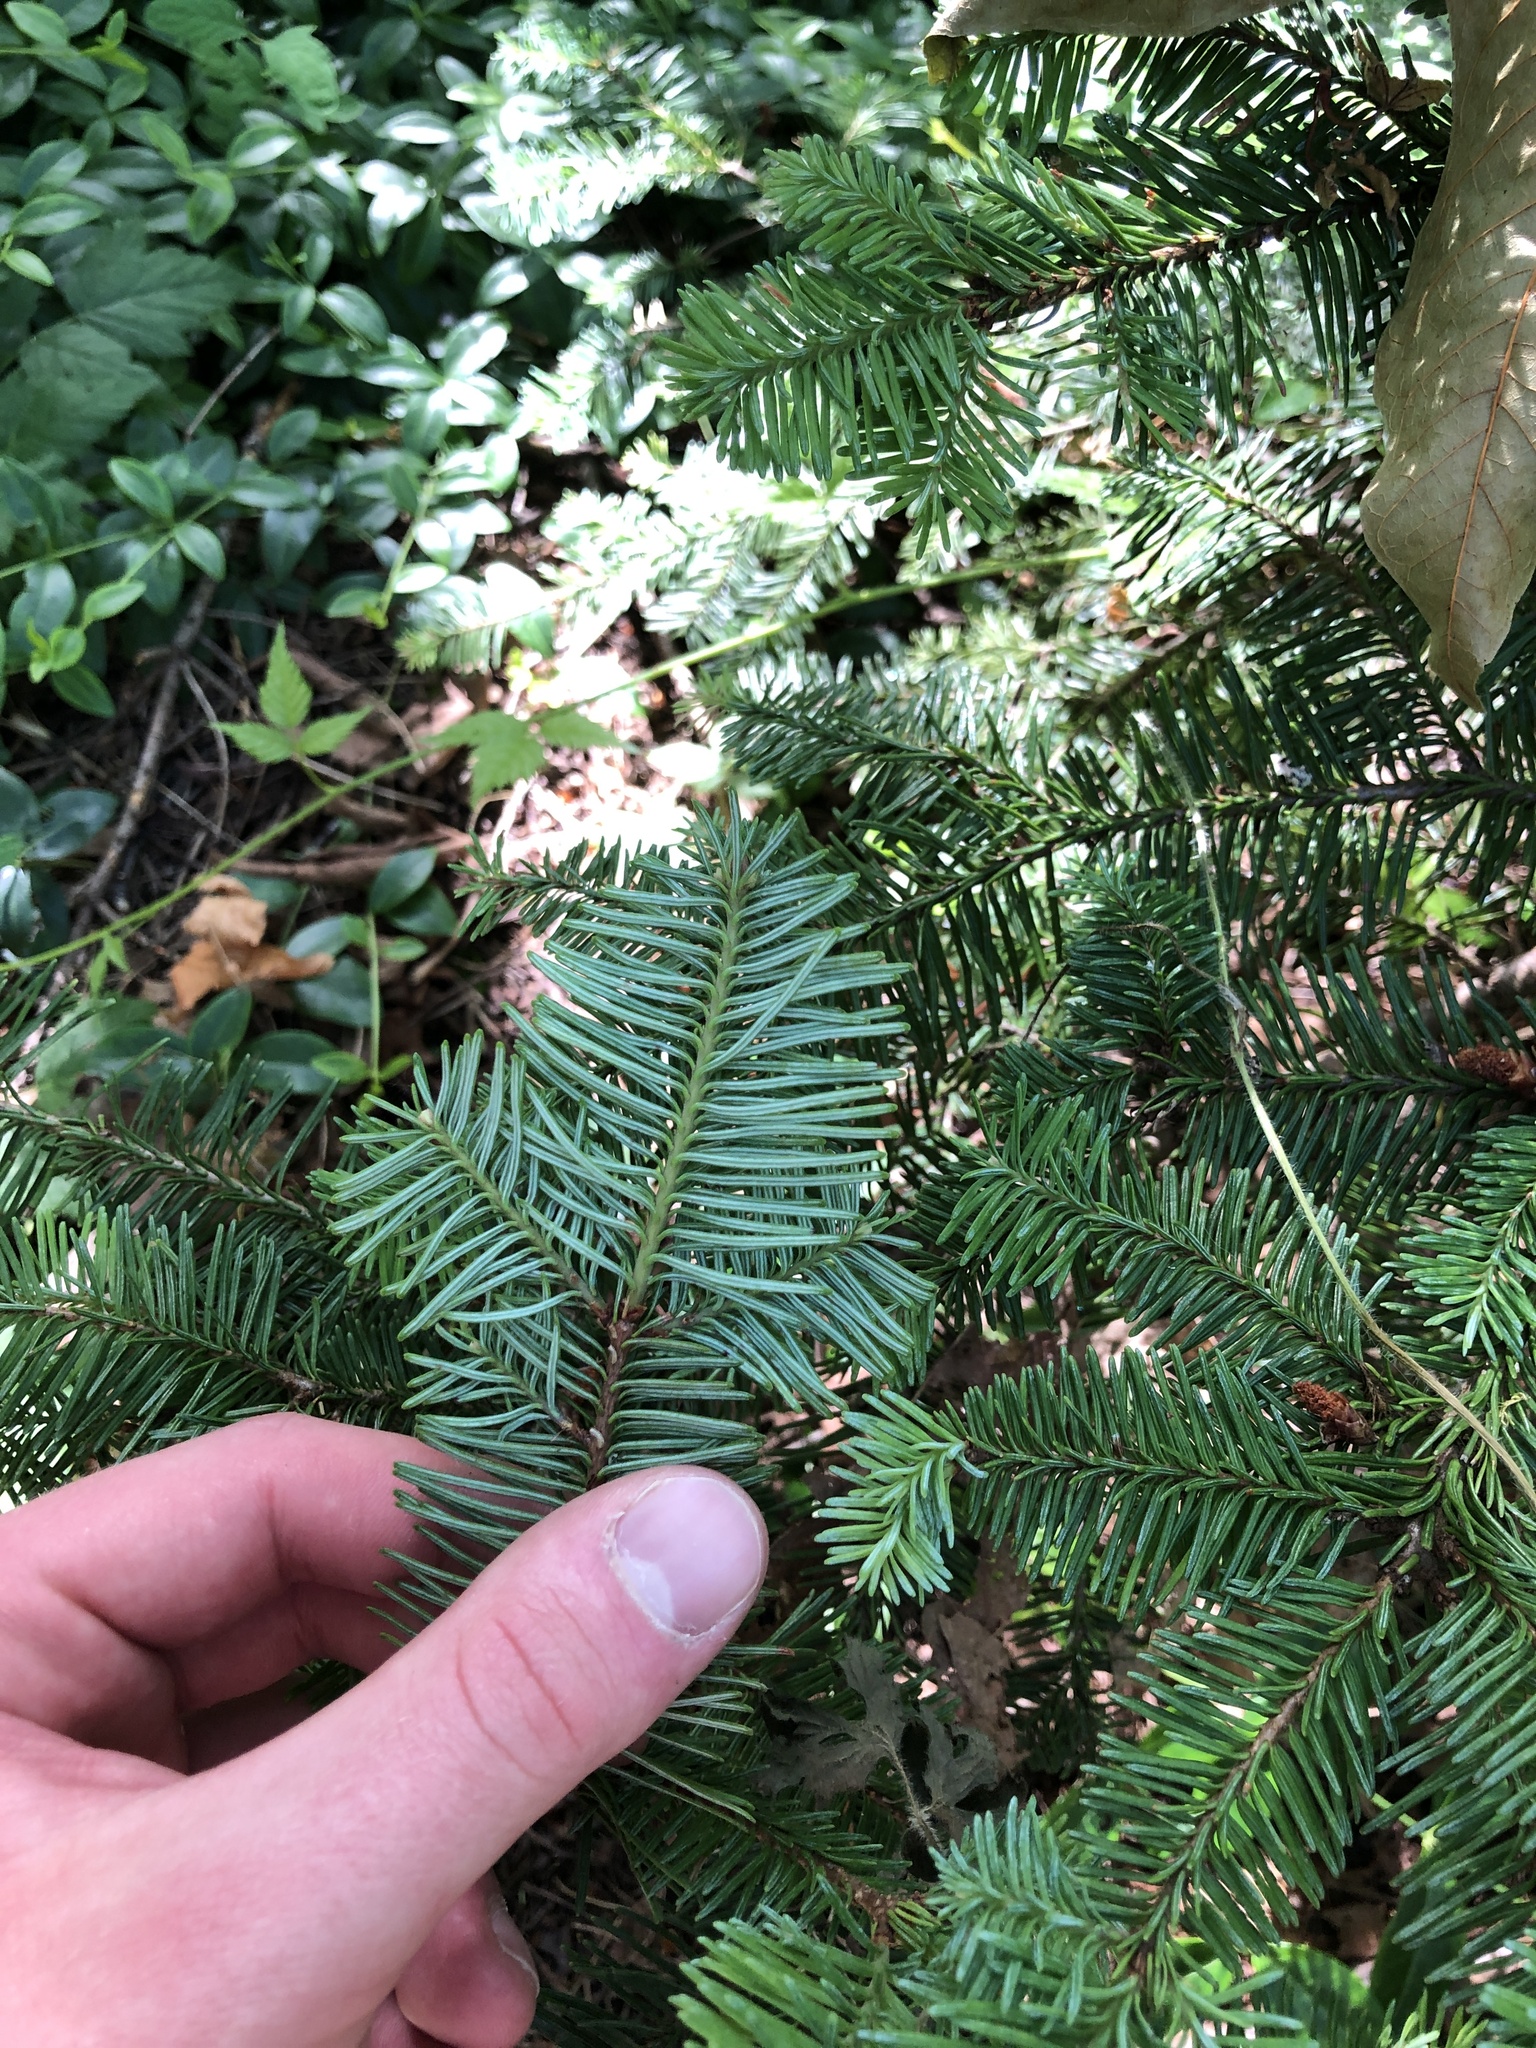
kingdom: Plantae
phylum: Tracheophyta
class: Pinopsida
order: Pinales
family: Pinaceae
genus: Abies
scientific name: Abies procera
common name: Noble fir
